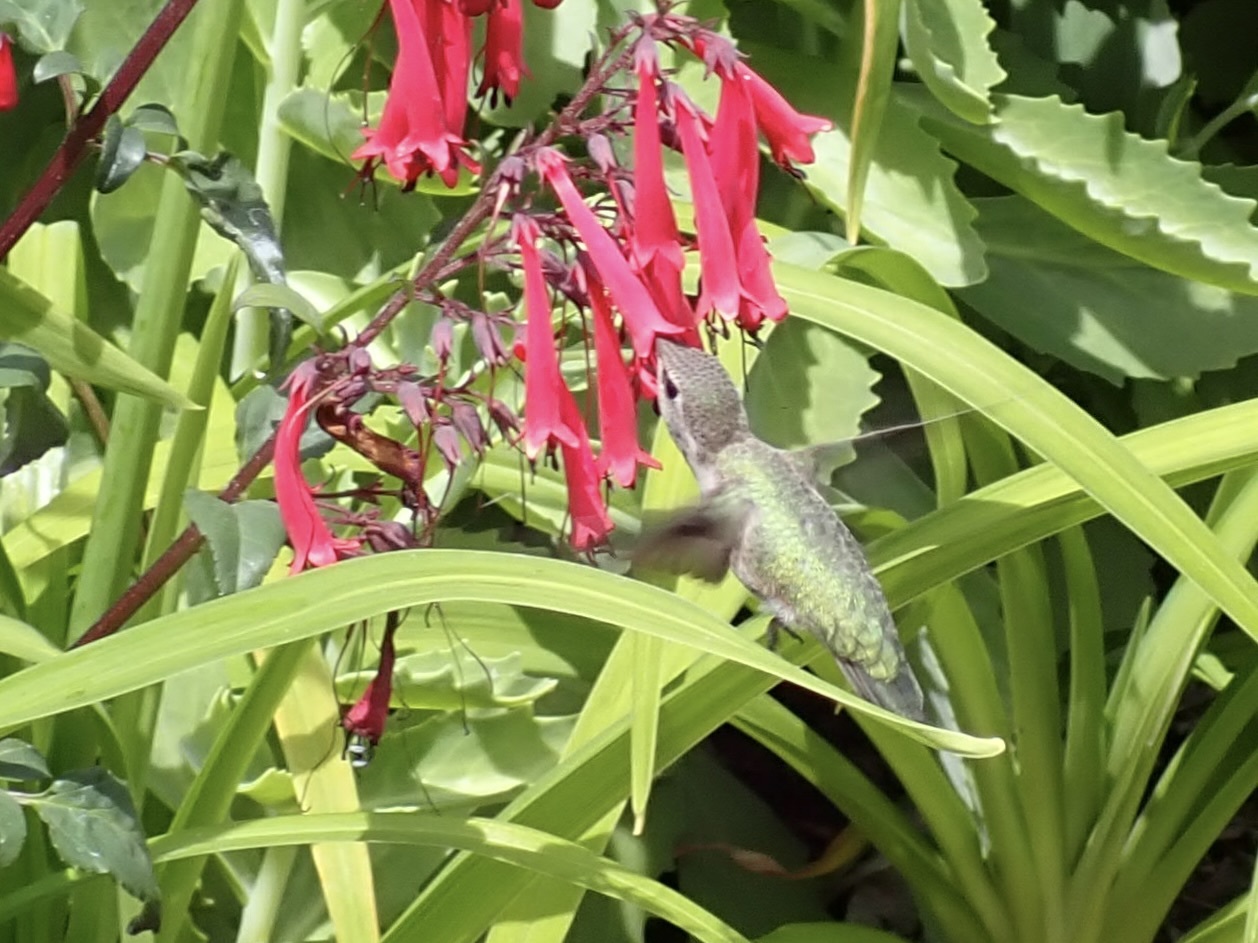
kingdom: Animalia
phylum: Chordata
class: Aves
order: Apodiformes
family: Trochilidae
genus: Calypte
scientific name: Calypte anna
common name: Anna's hummingbird
